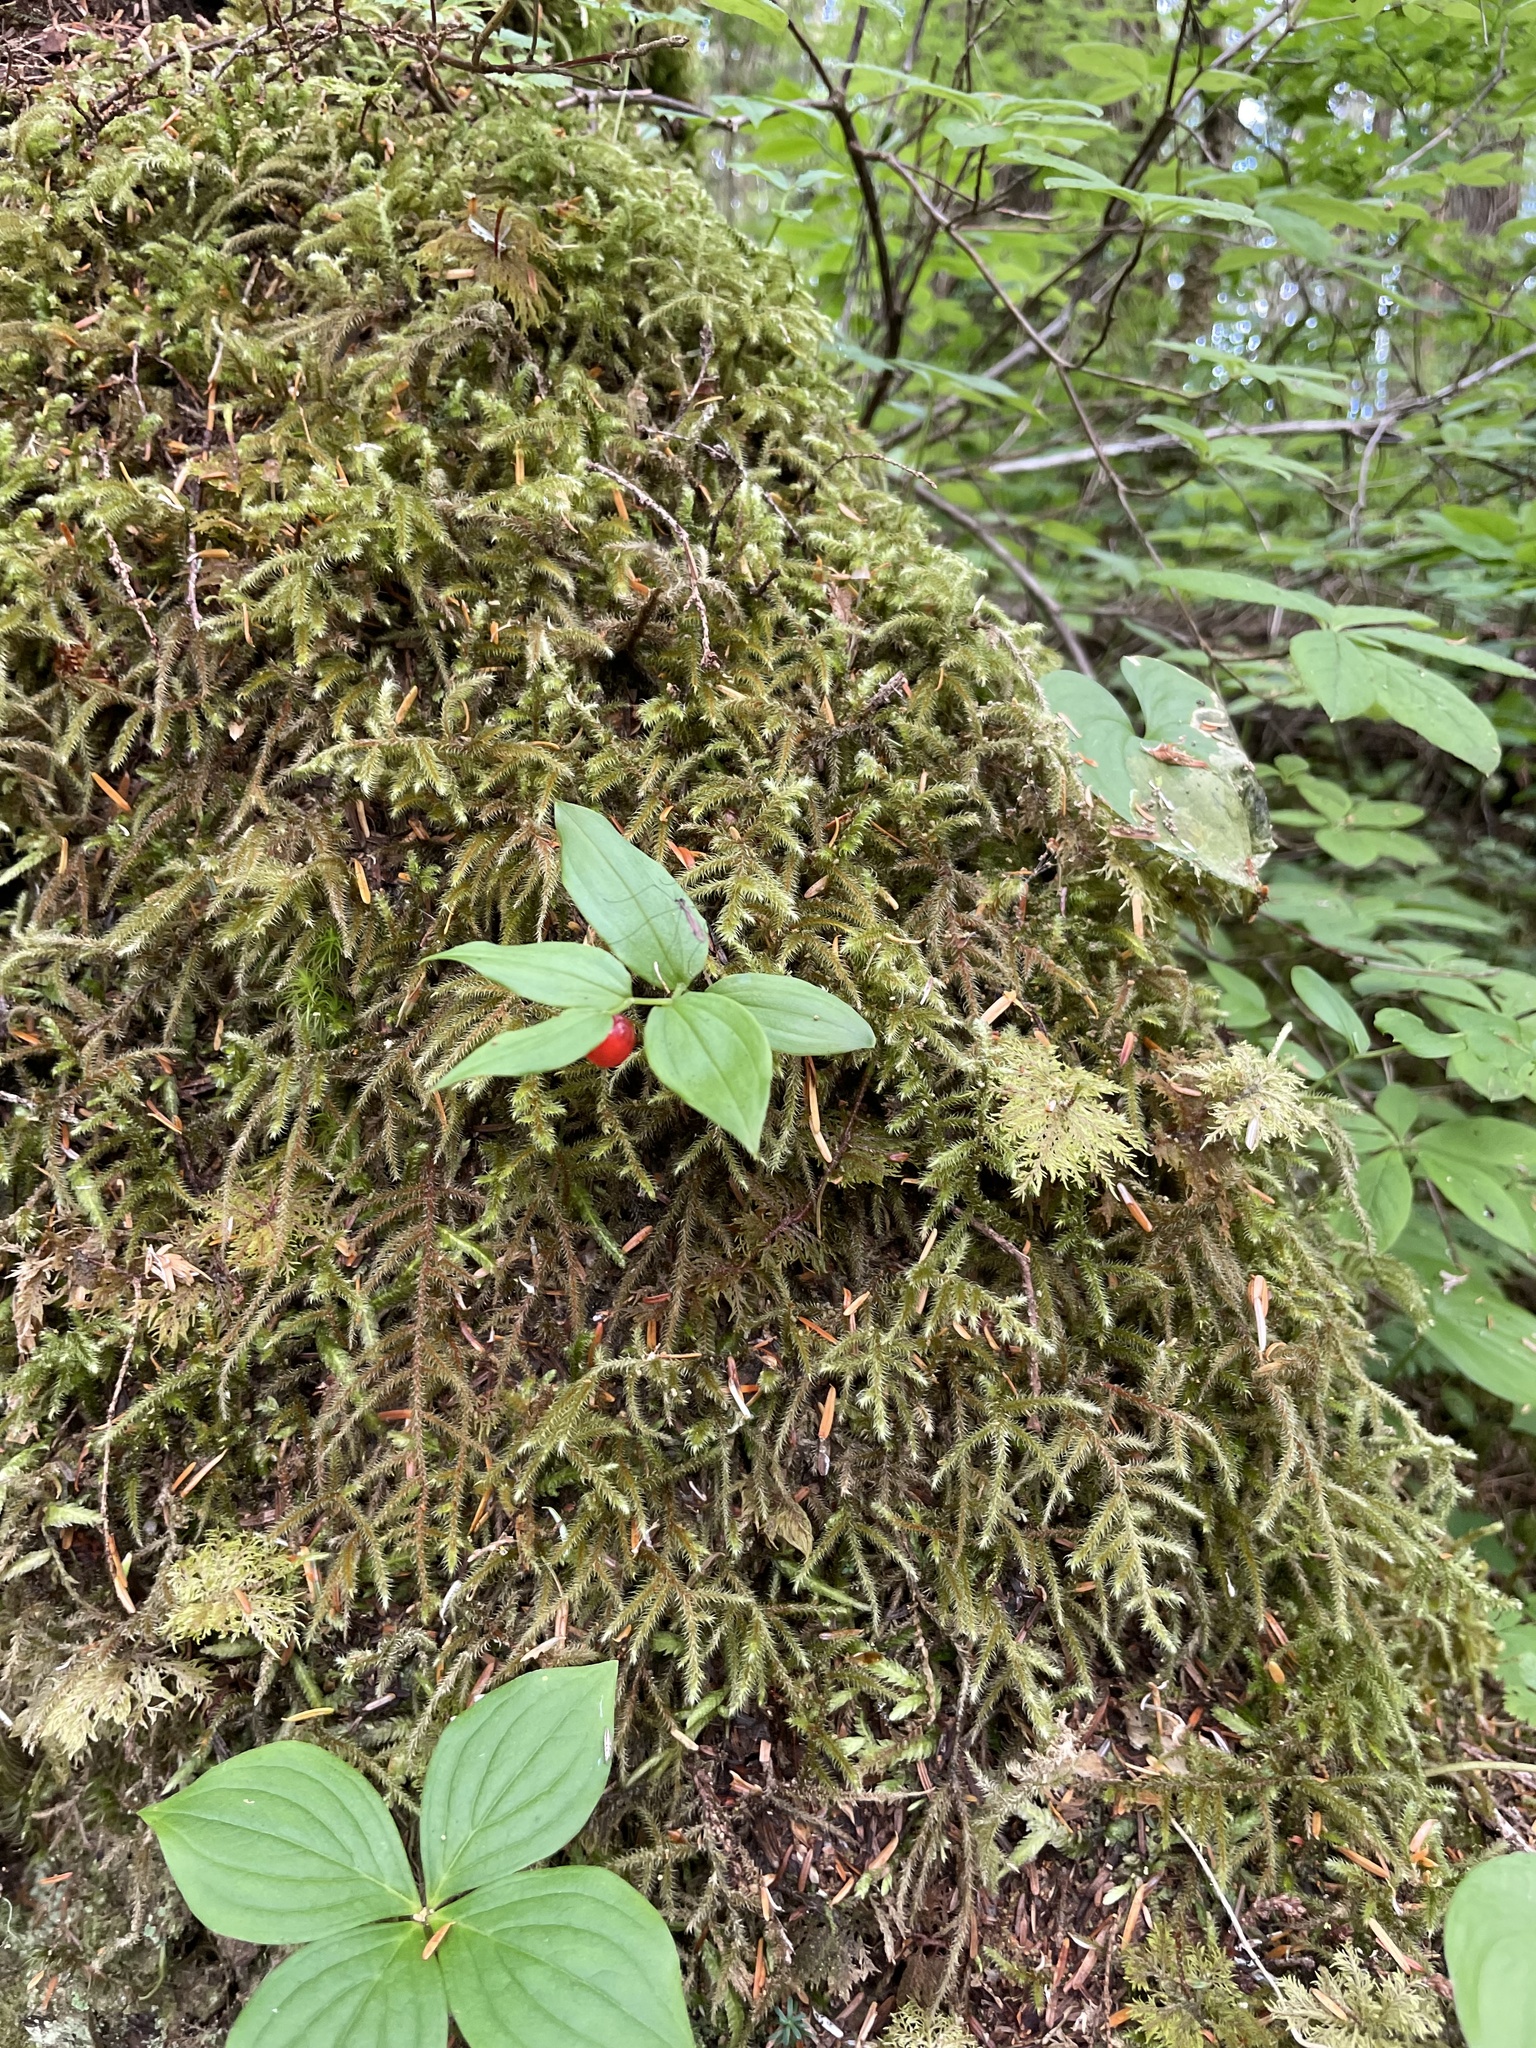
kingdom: Plantae
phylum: Tracheophyta
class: Liliopsida
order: Liliales
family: Liliaceae
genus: Streptopus
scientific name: Streptopus streptopoides
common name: Small twisted-stalk
